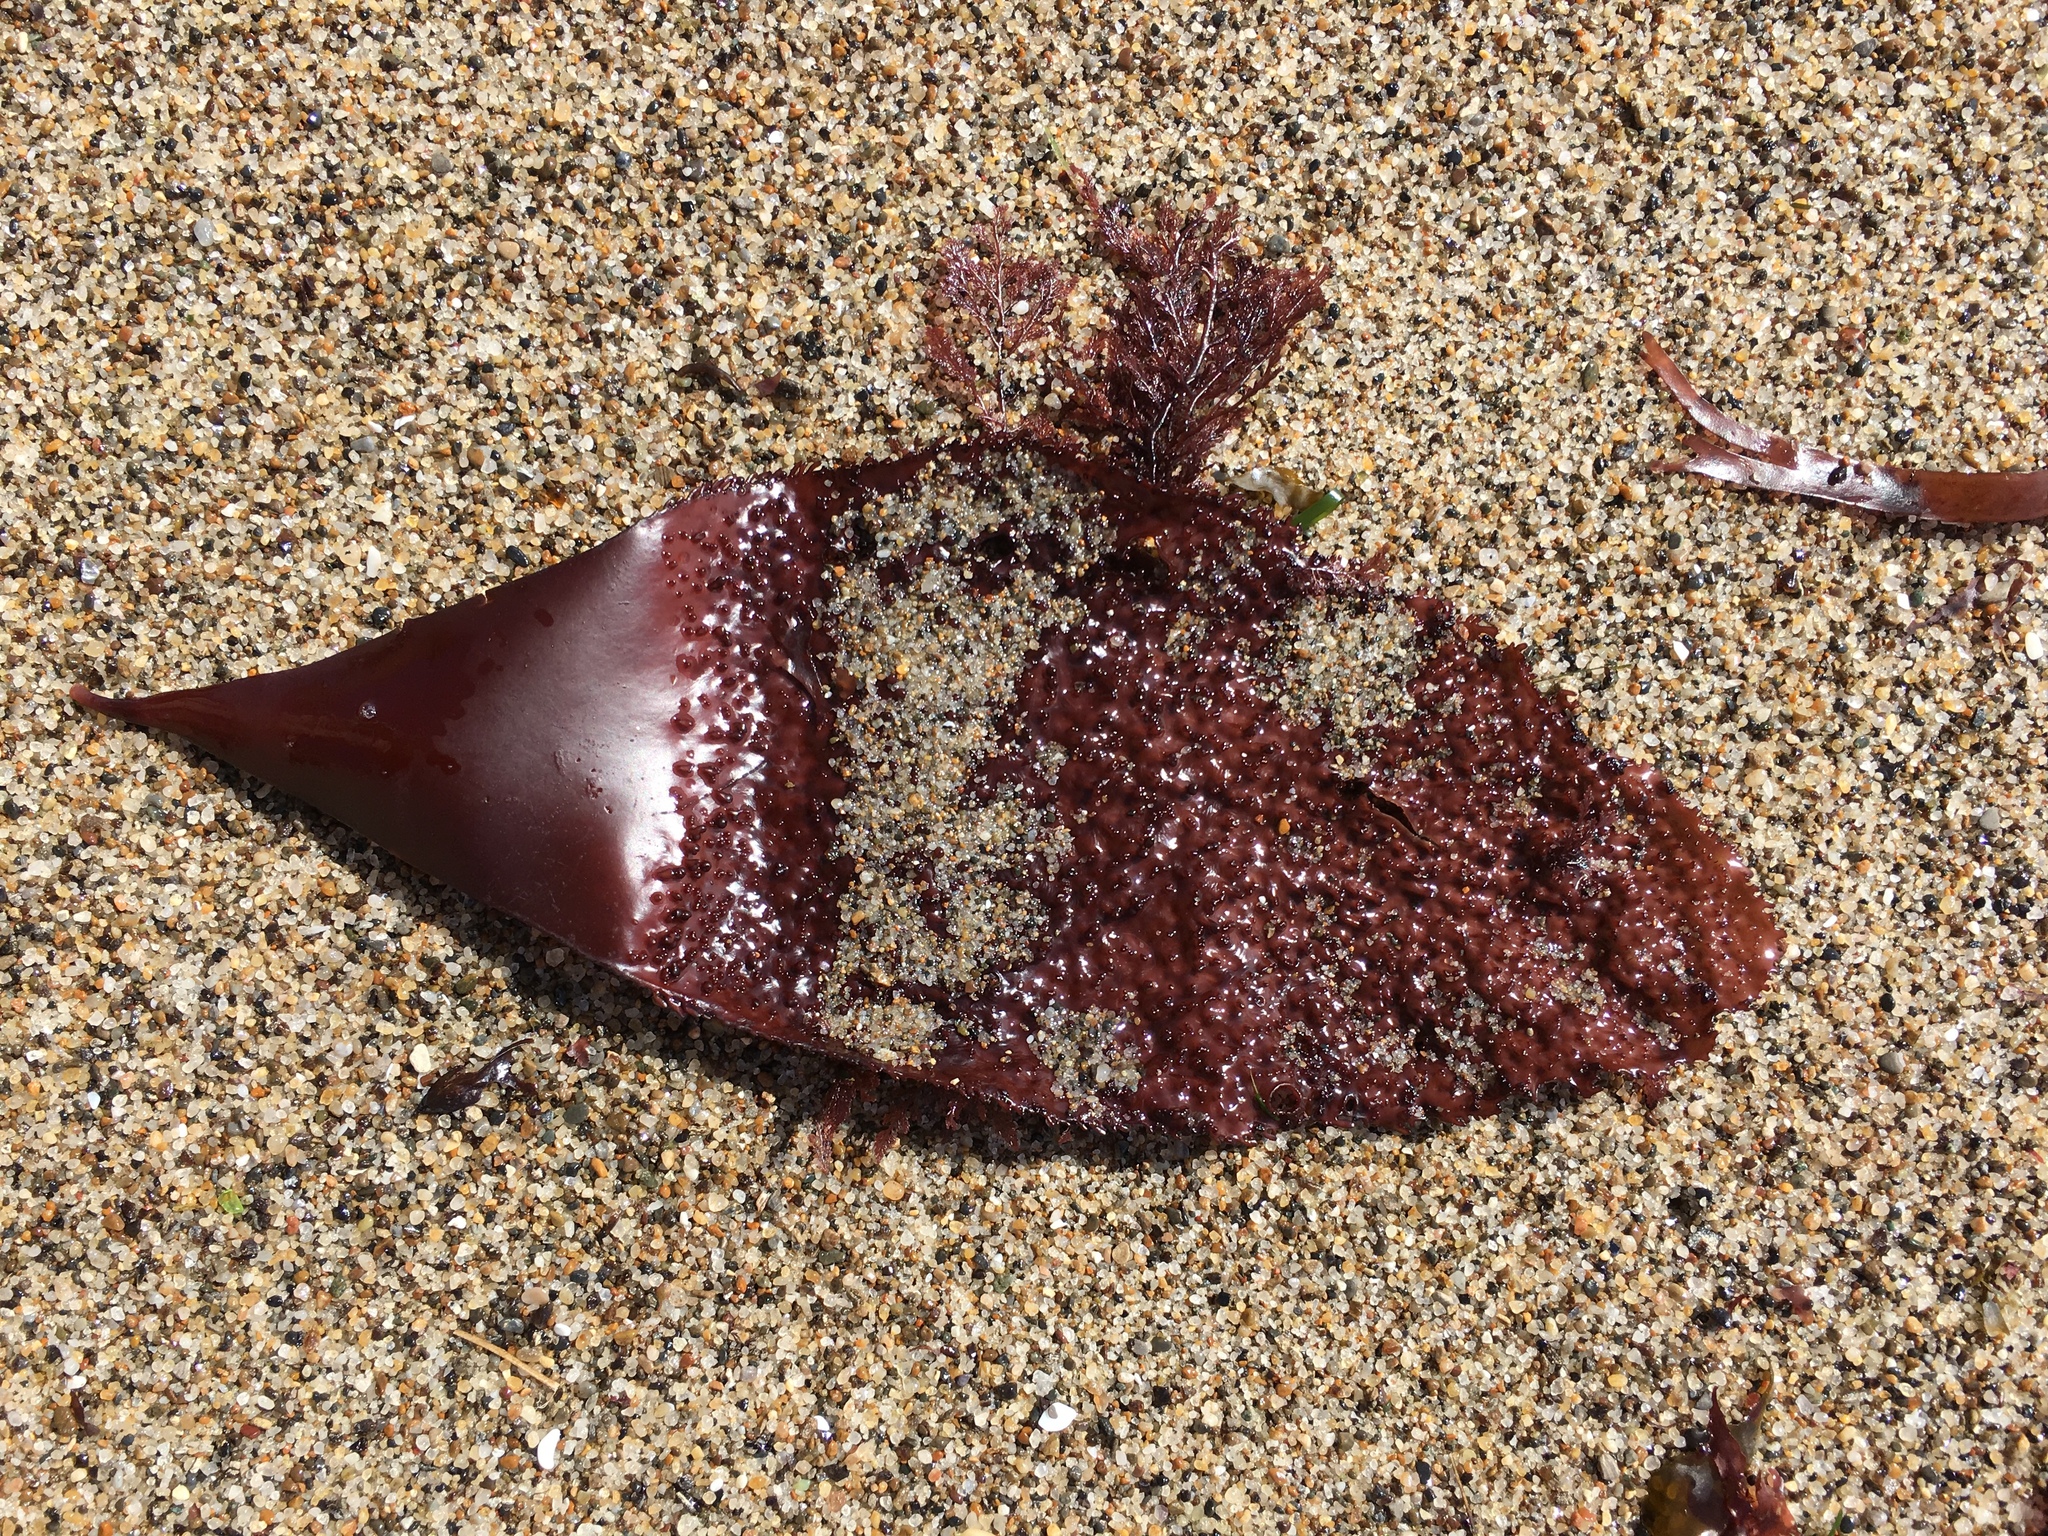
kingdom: Plantae
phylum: Rhodophyta
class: Florideophyceae
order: Gigartinales
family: Gigartinaceae
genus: Chondracanthus
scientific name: Chondracanthus exasperatus
